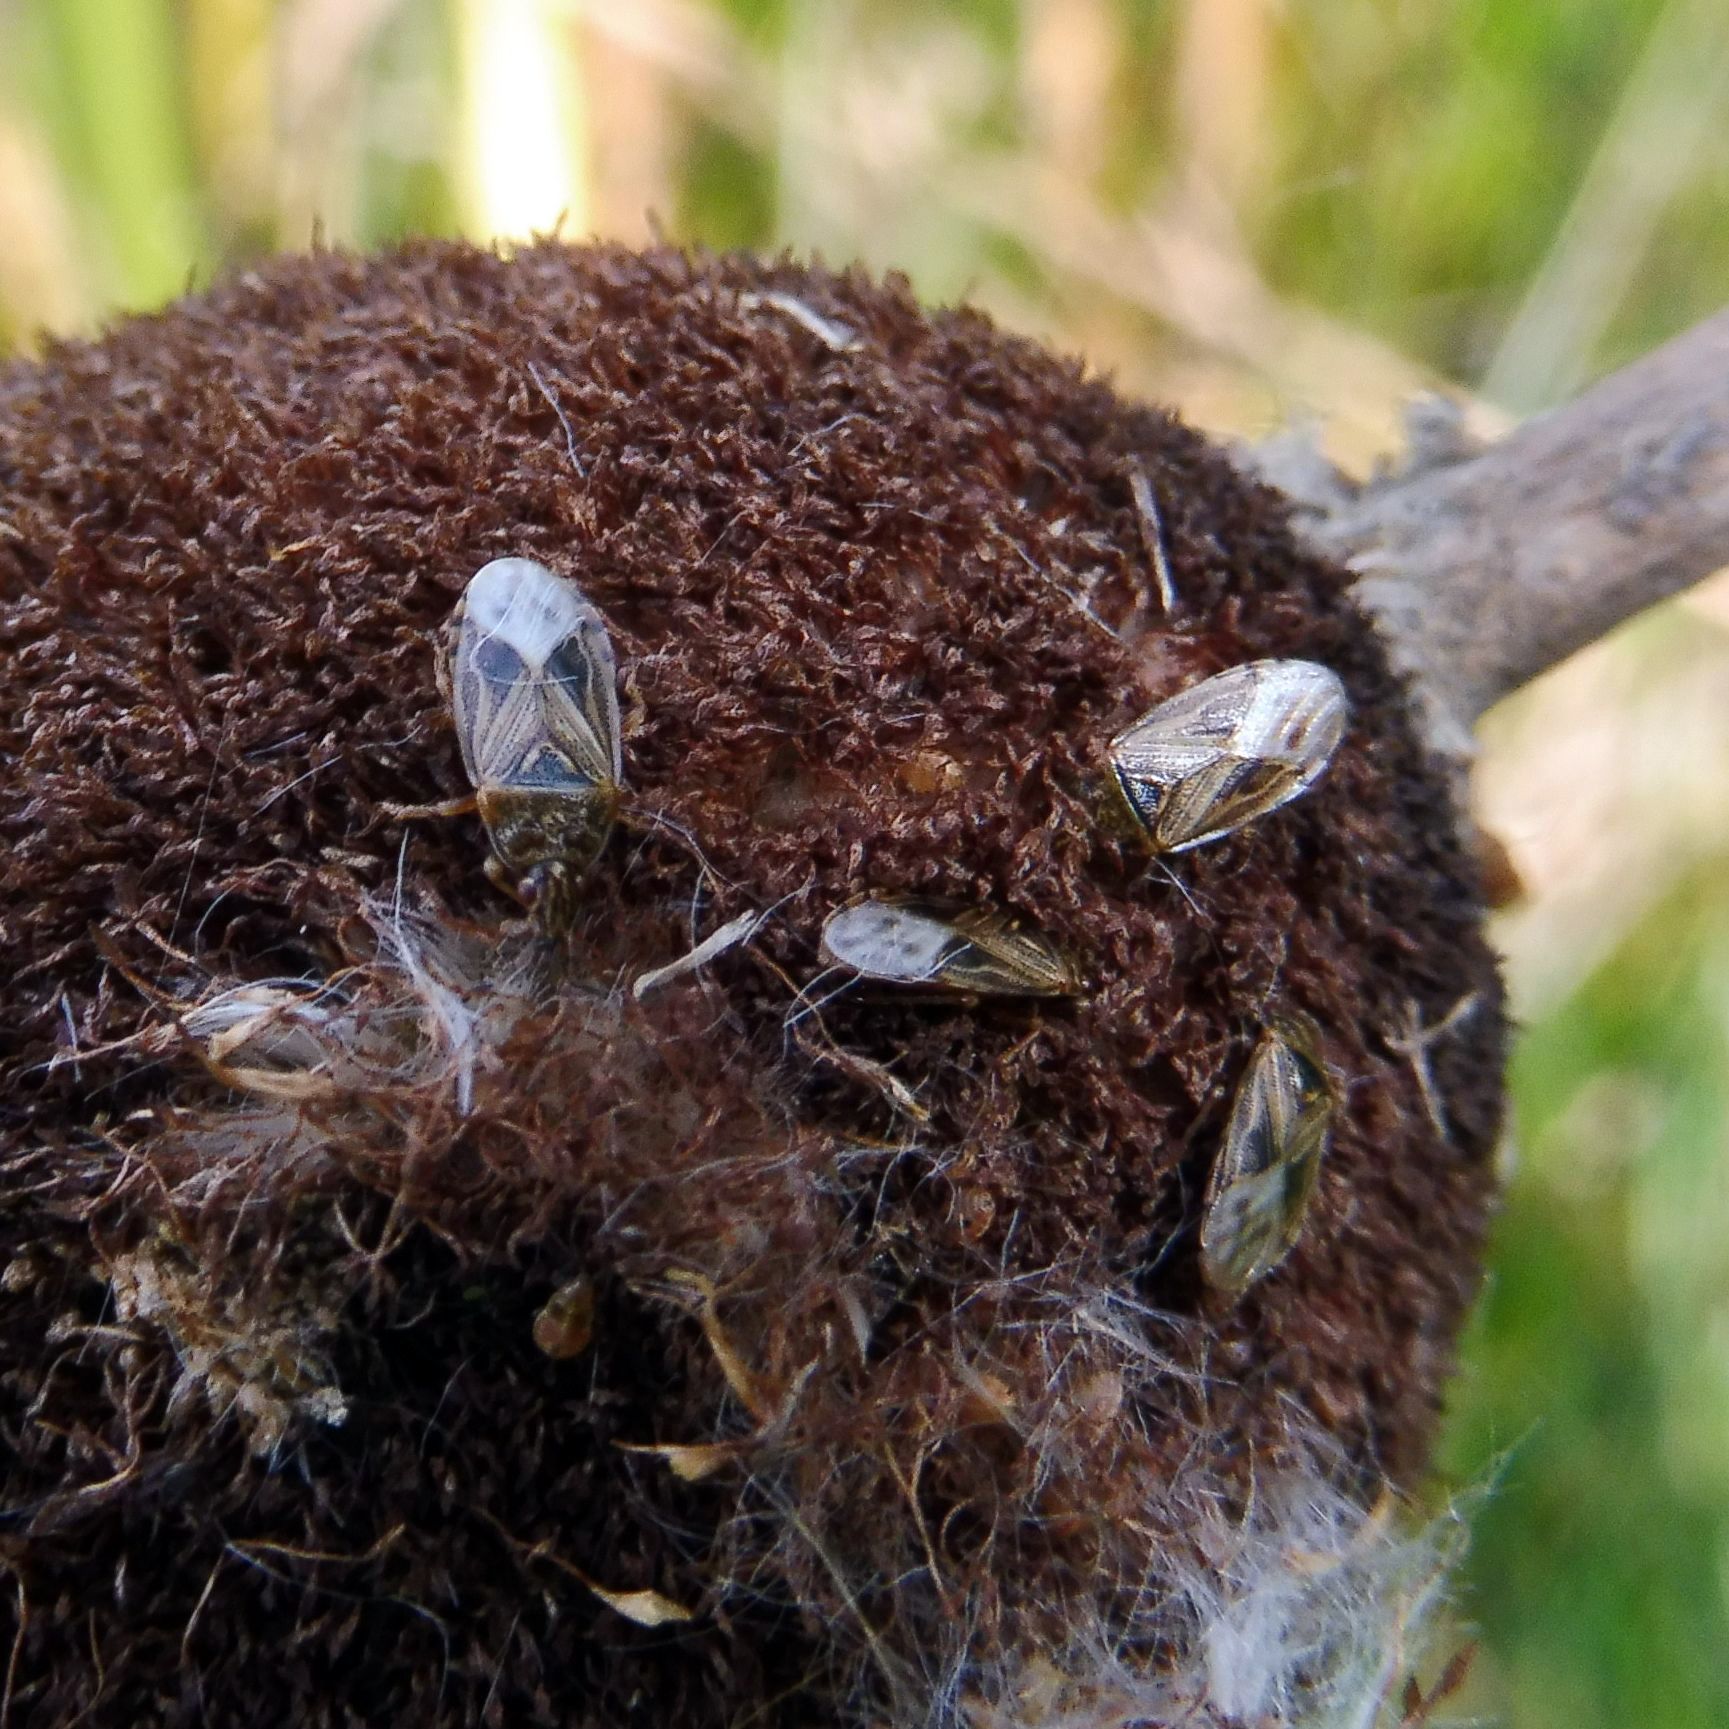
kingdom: Animalia
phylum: Arthropoda
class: Insecta
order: Hemiptera
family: Artheneidae
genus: Chilacis
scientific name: Chilacis typhae
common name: Cattail bug
